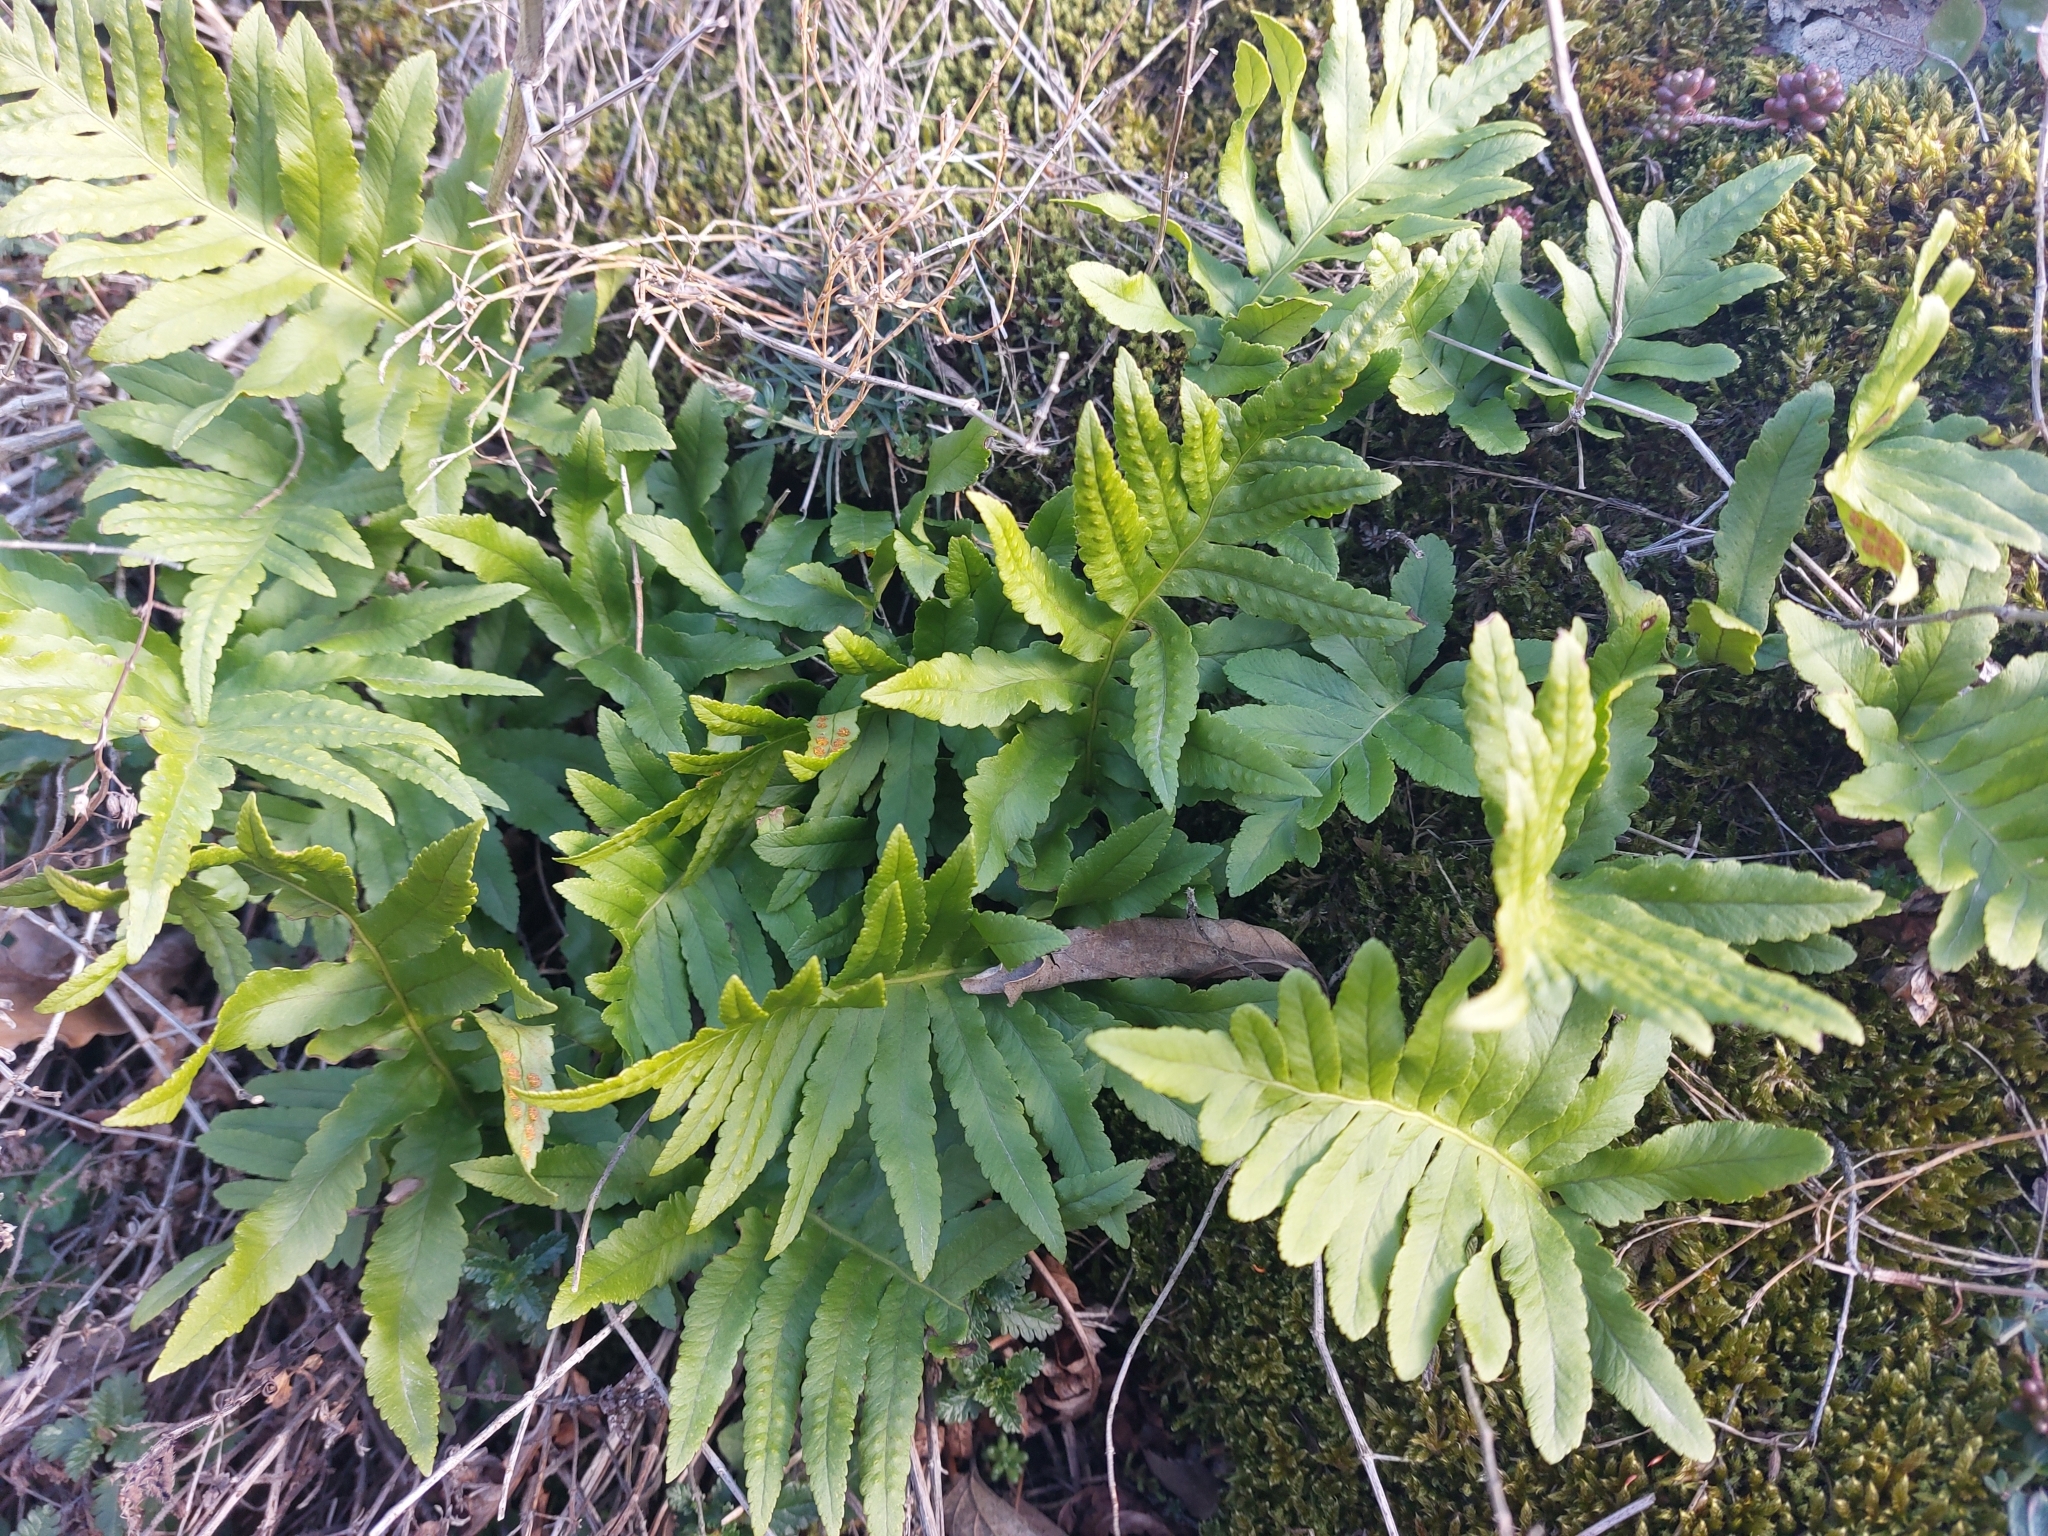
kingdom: Plantae
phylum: Tracheophyta
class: Polypodiopsida
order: Polypodiales
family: Polypodiaceae
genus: Polypodium
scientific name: Polypodium cambricum
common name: Southern polypody
